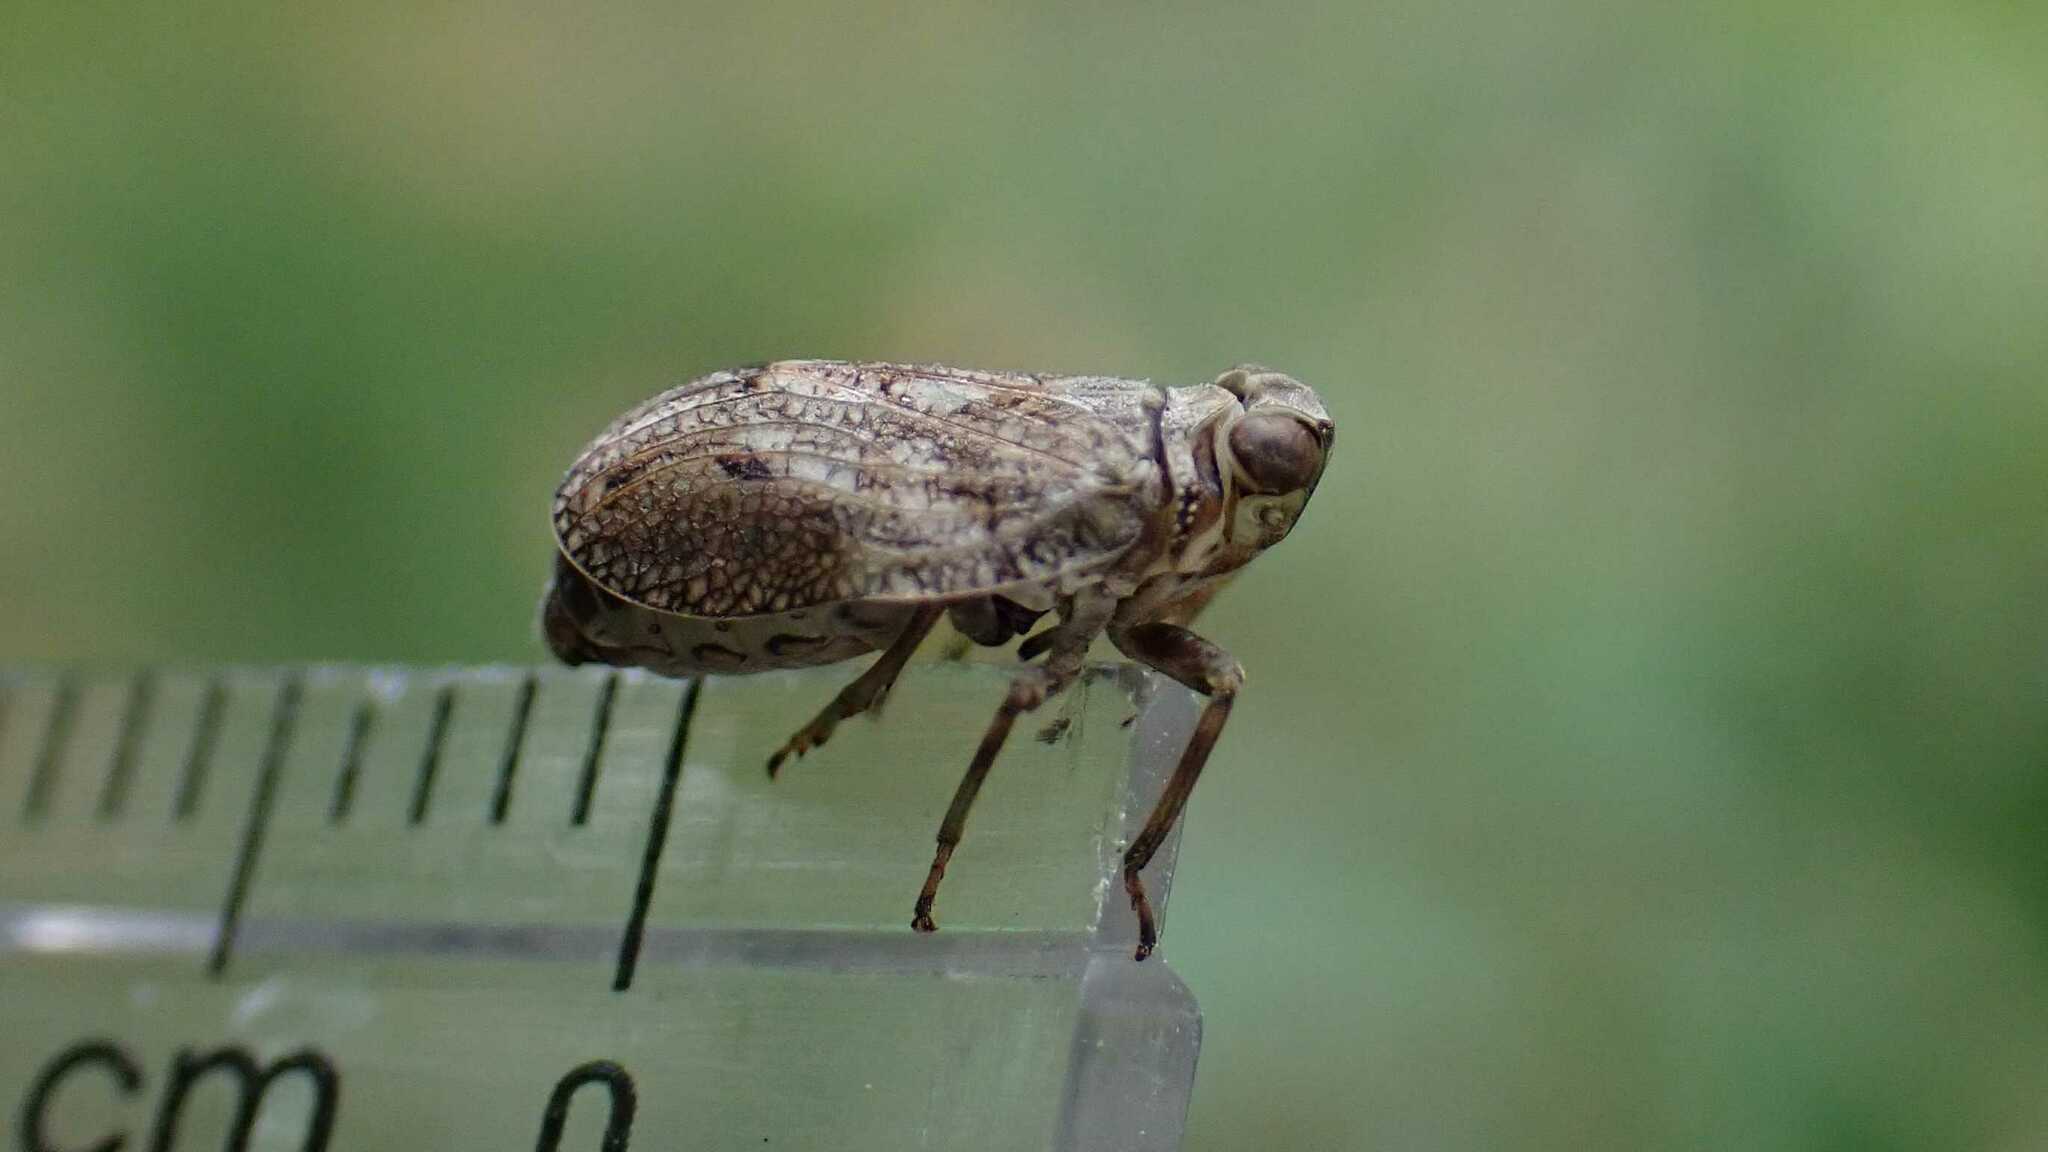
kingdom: Animalia
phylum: Arthropoda
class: Insecta
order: Hemiptera
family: Issidae
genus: Issus
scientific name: Issus coleoptratus
